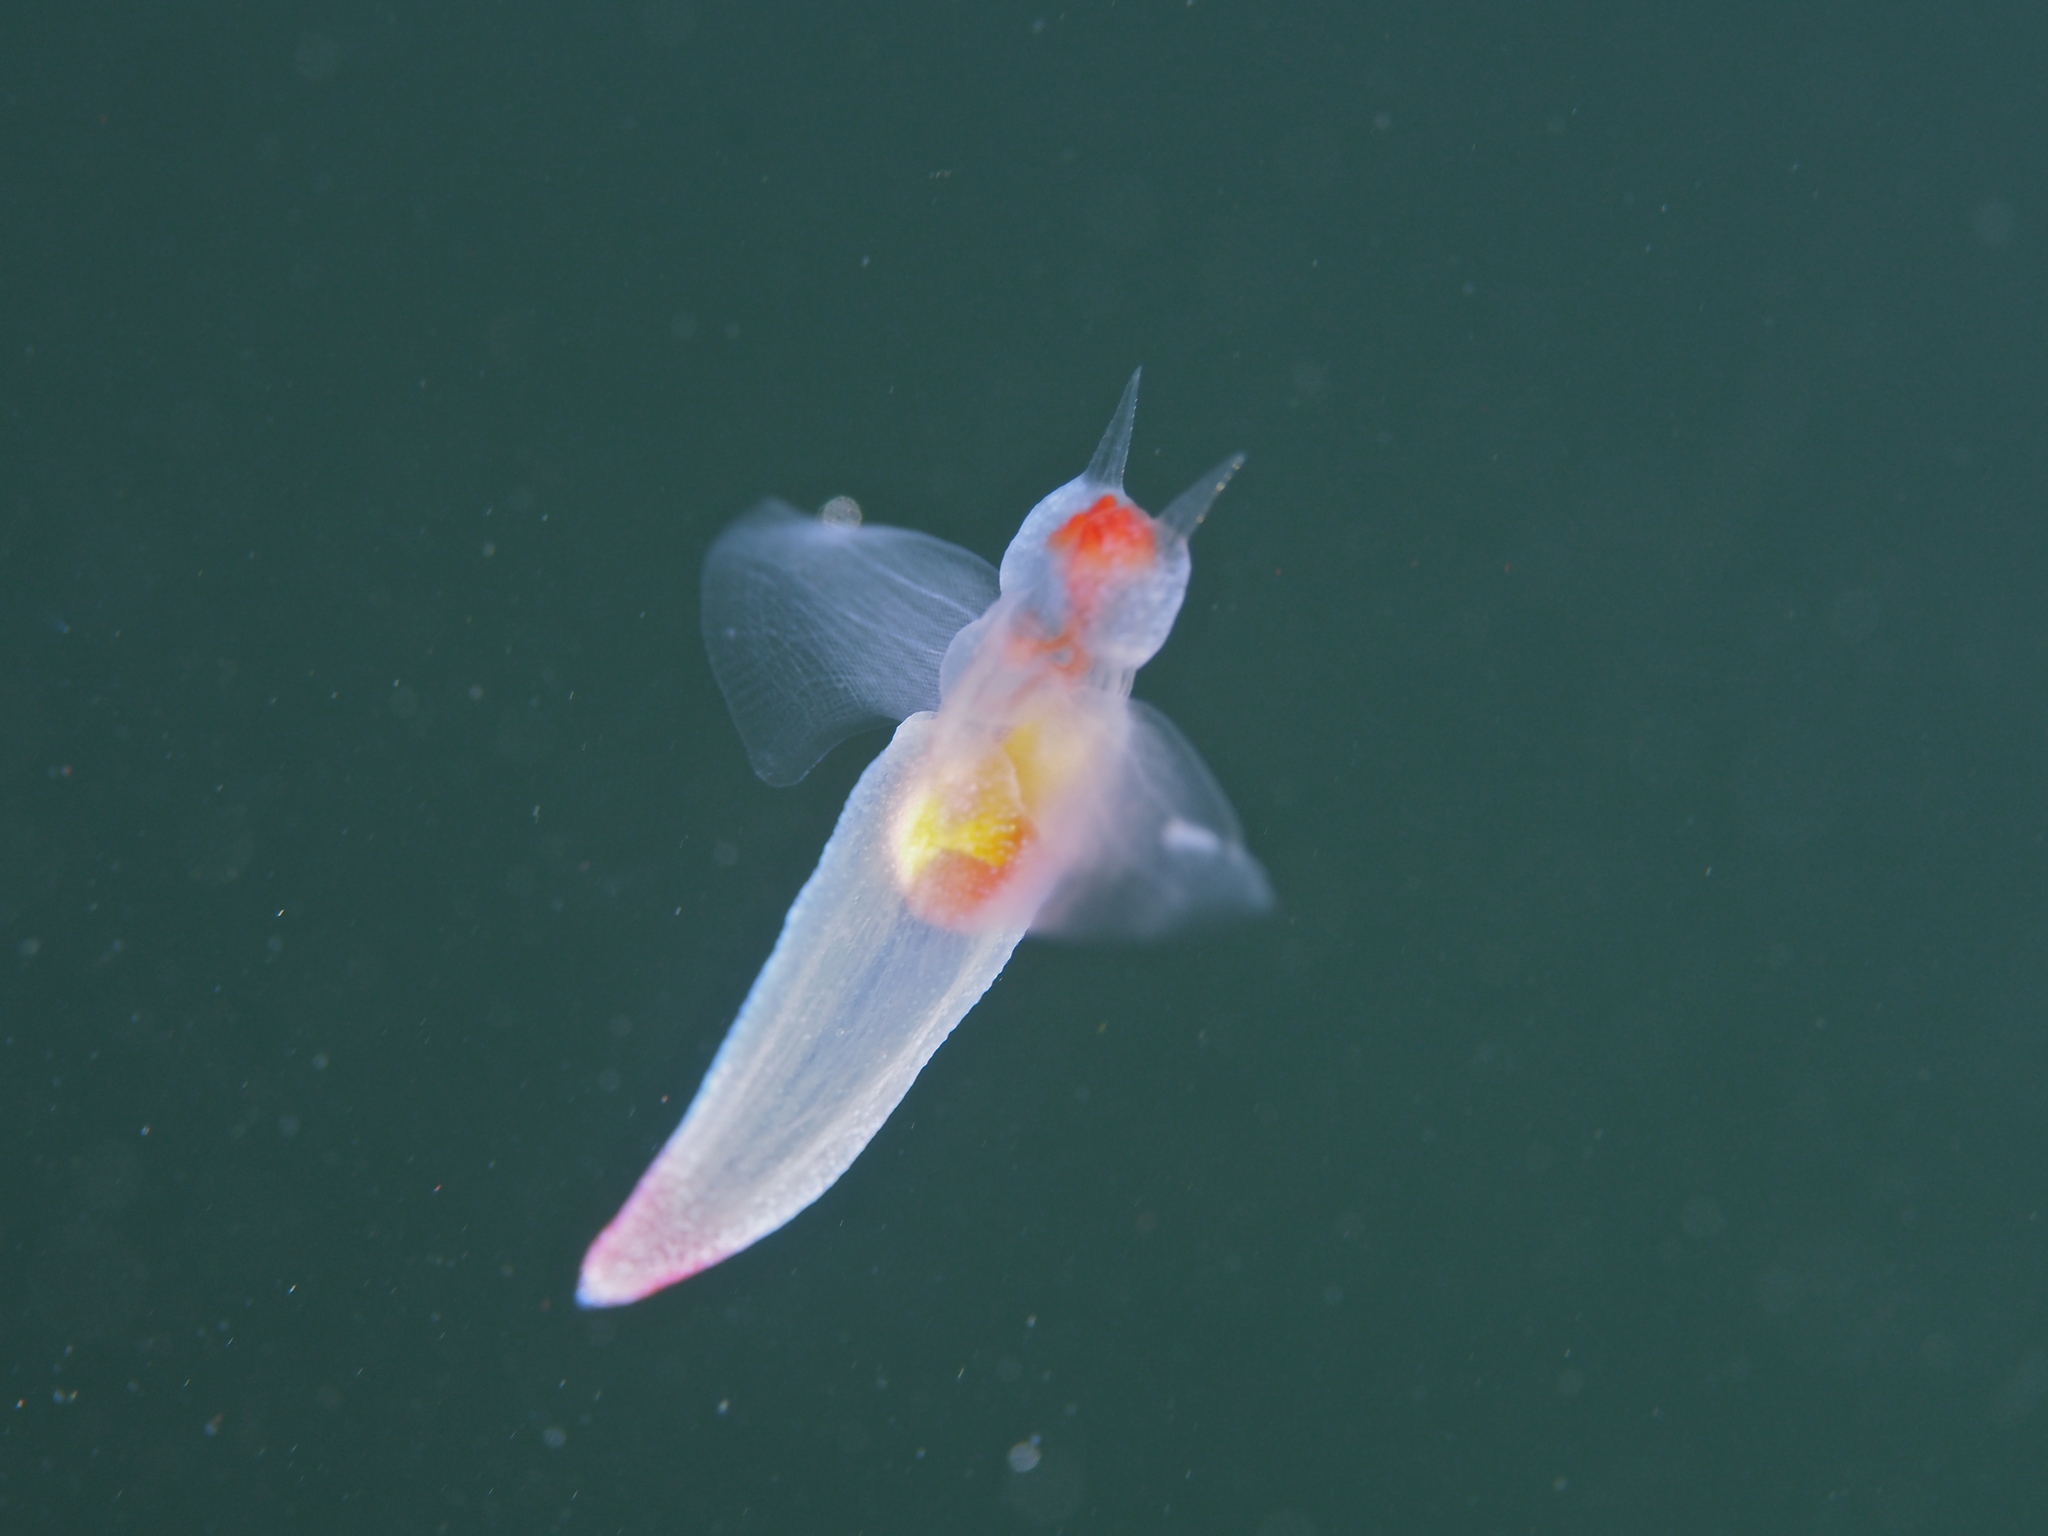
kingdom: Animalia
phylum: Mollusca
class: Gastropoda
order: Pteropoda
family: Clionidae
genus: Clione
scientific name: Clione limacina
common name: Common clione
